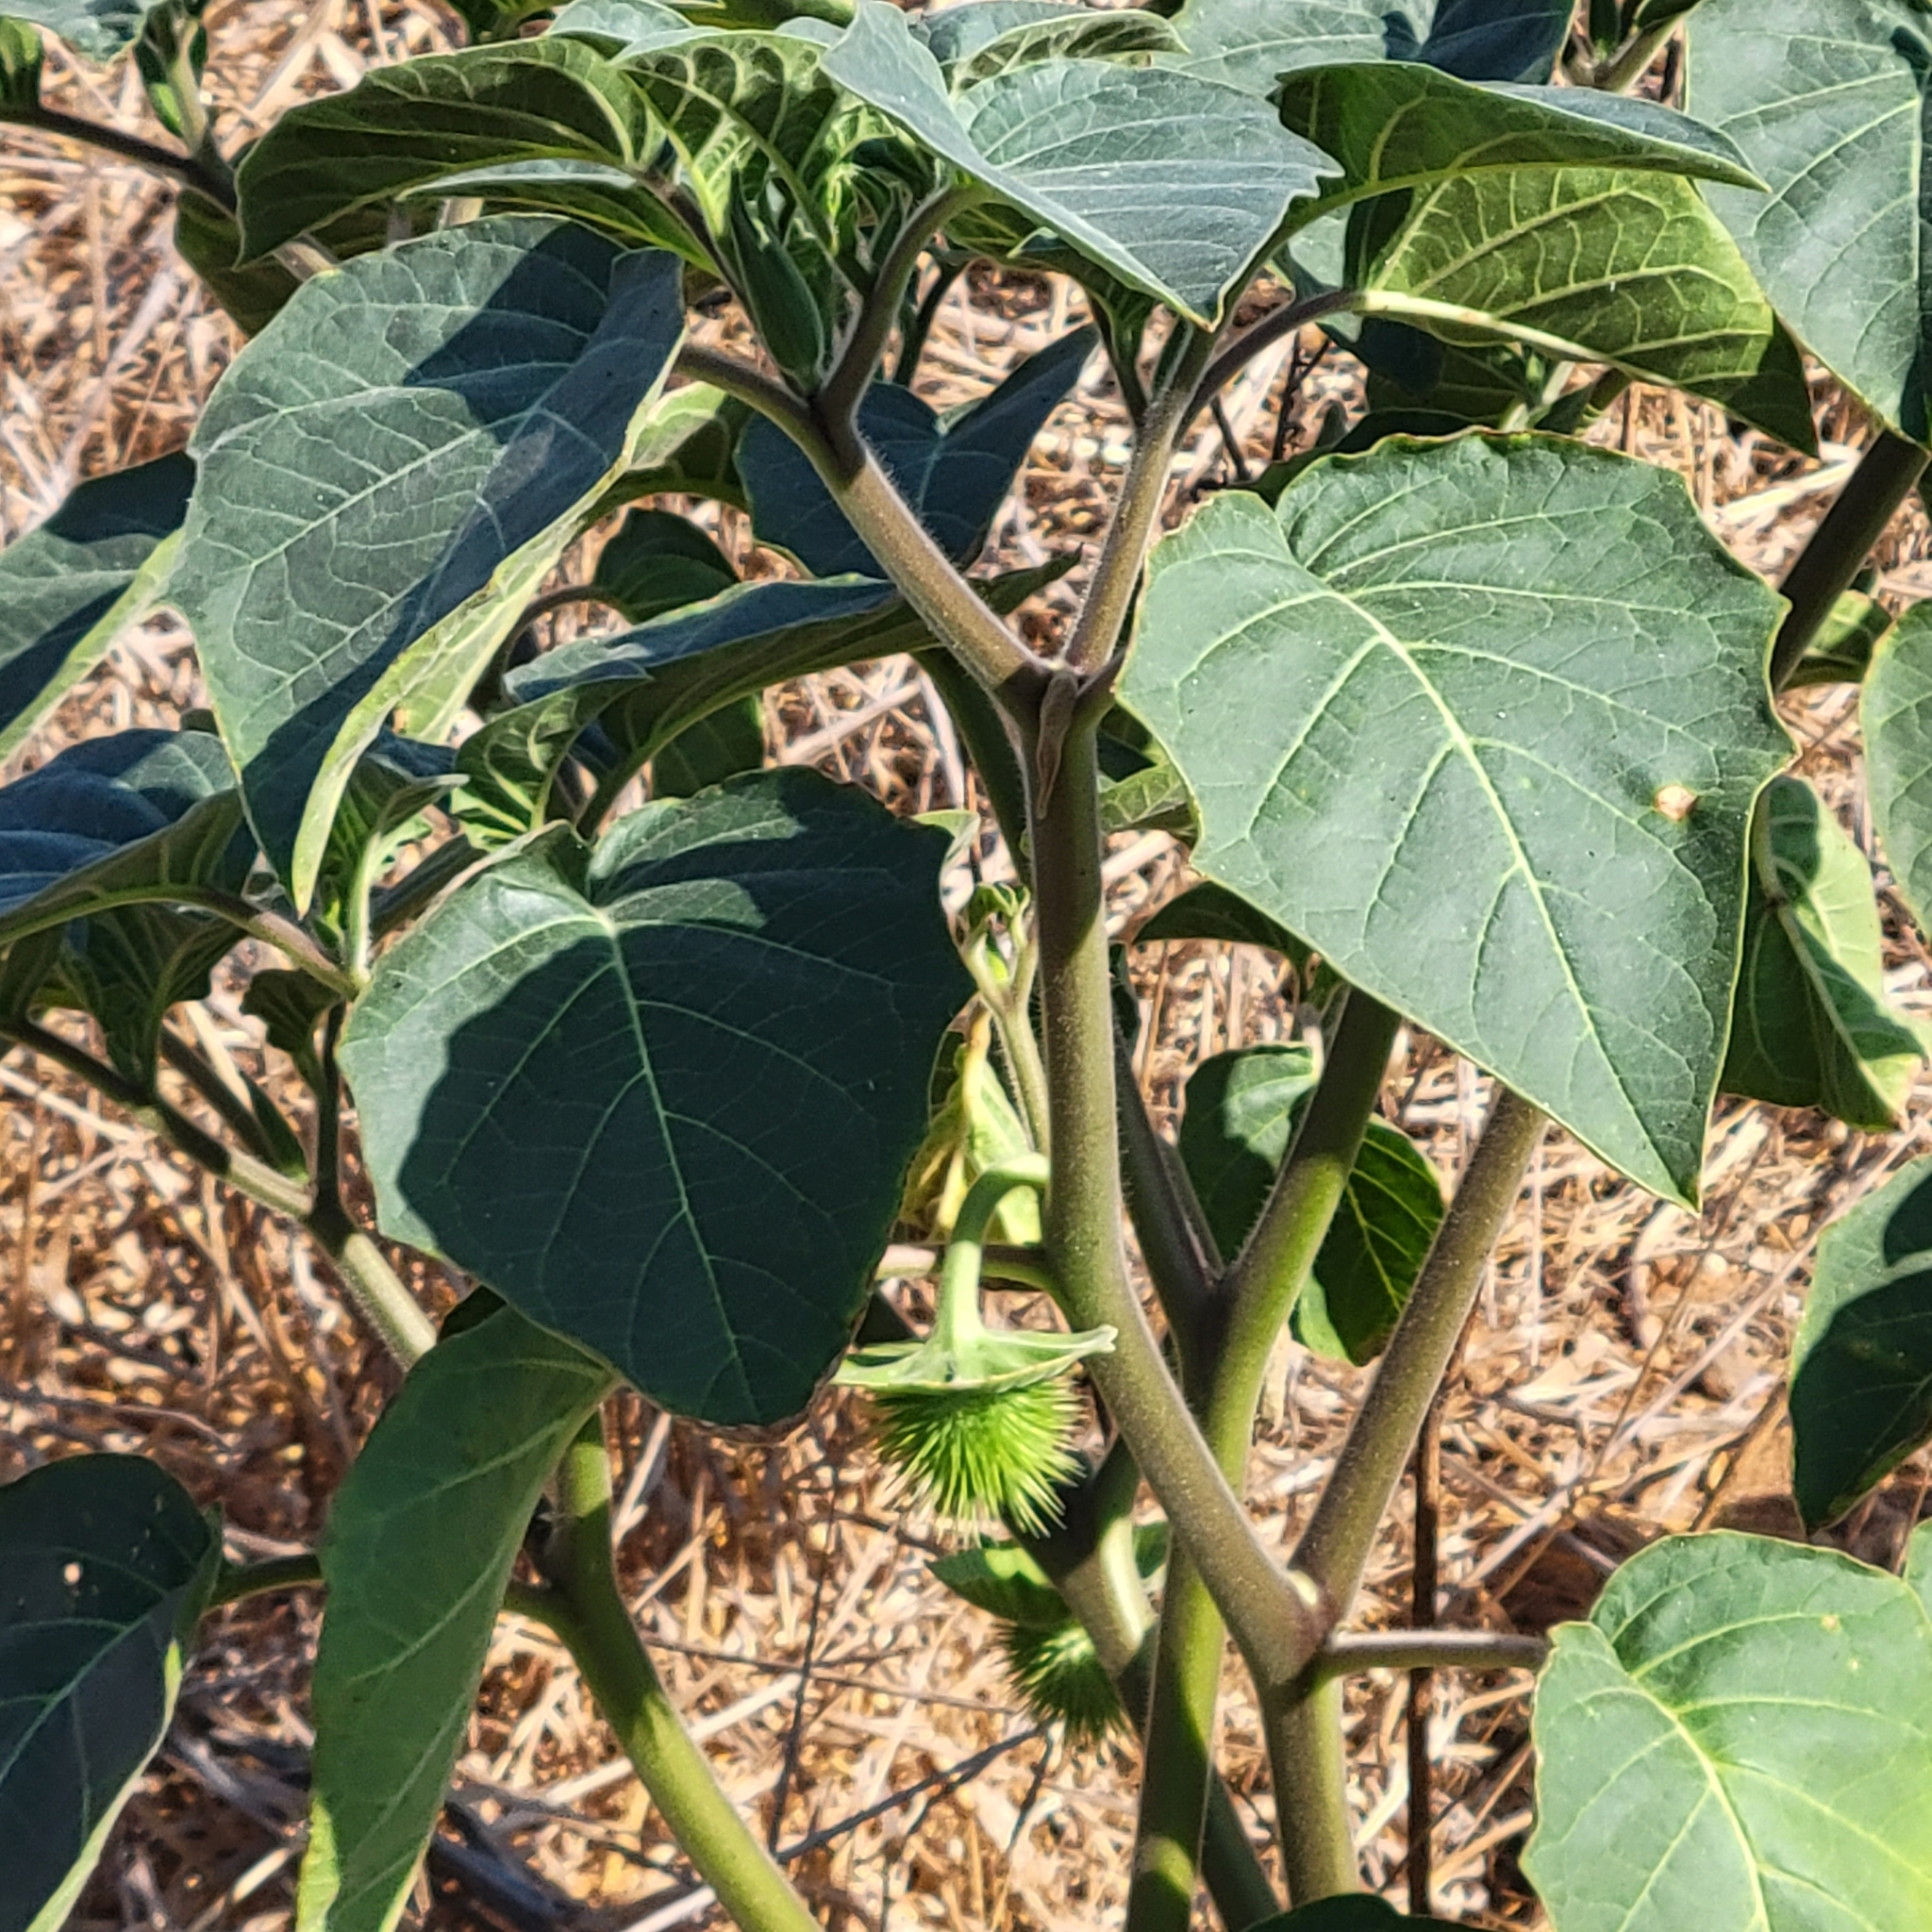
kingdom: Plantae
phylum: Tracheophyta
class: Magnoliopsida
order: Solanales
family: Solanaceae
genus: Datura
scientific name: Datura innoxia
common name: Downy thorn-apple
